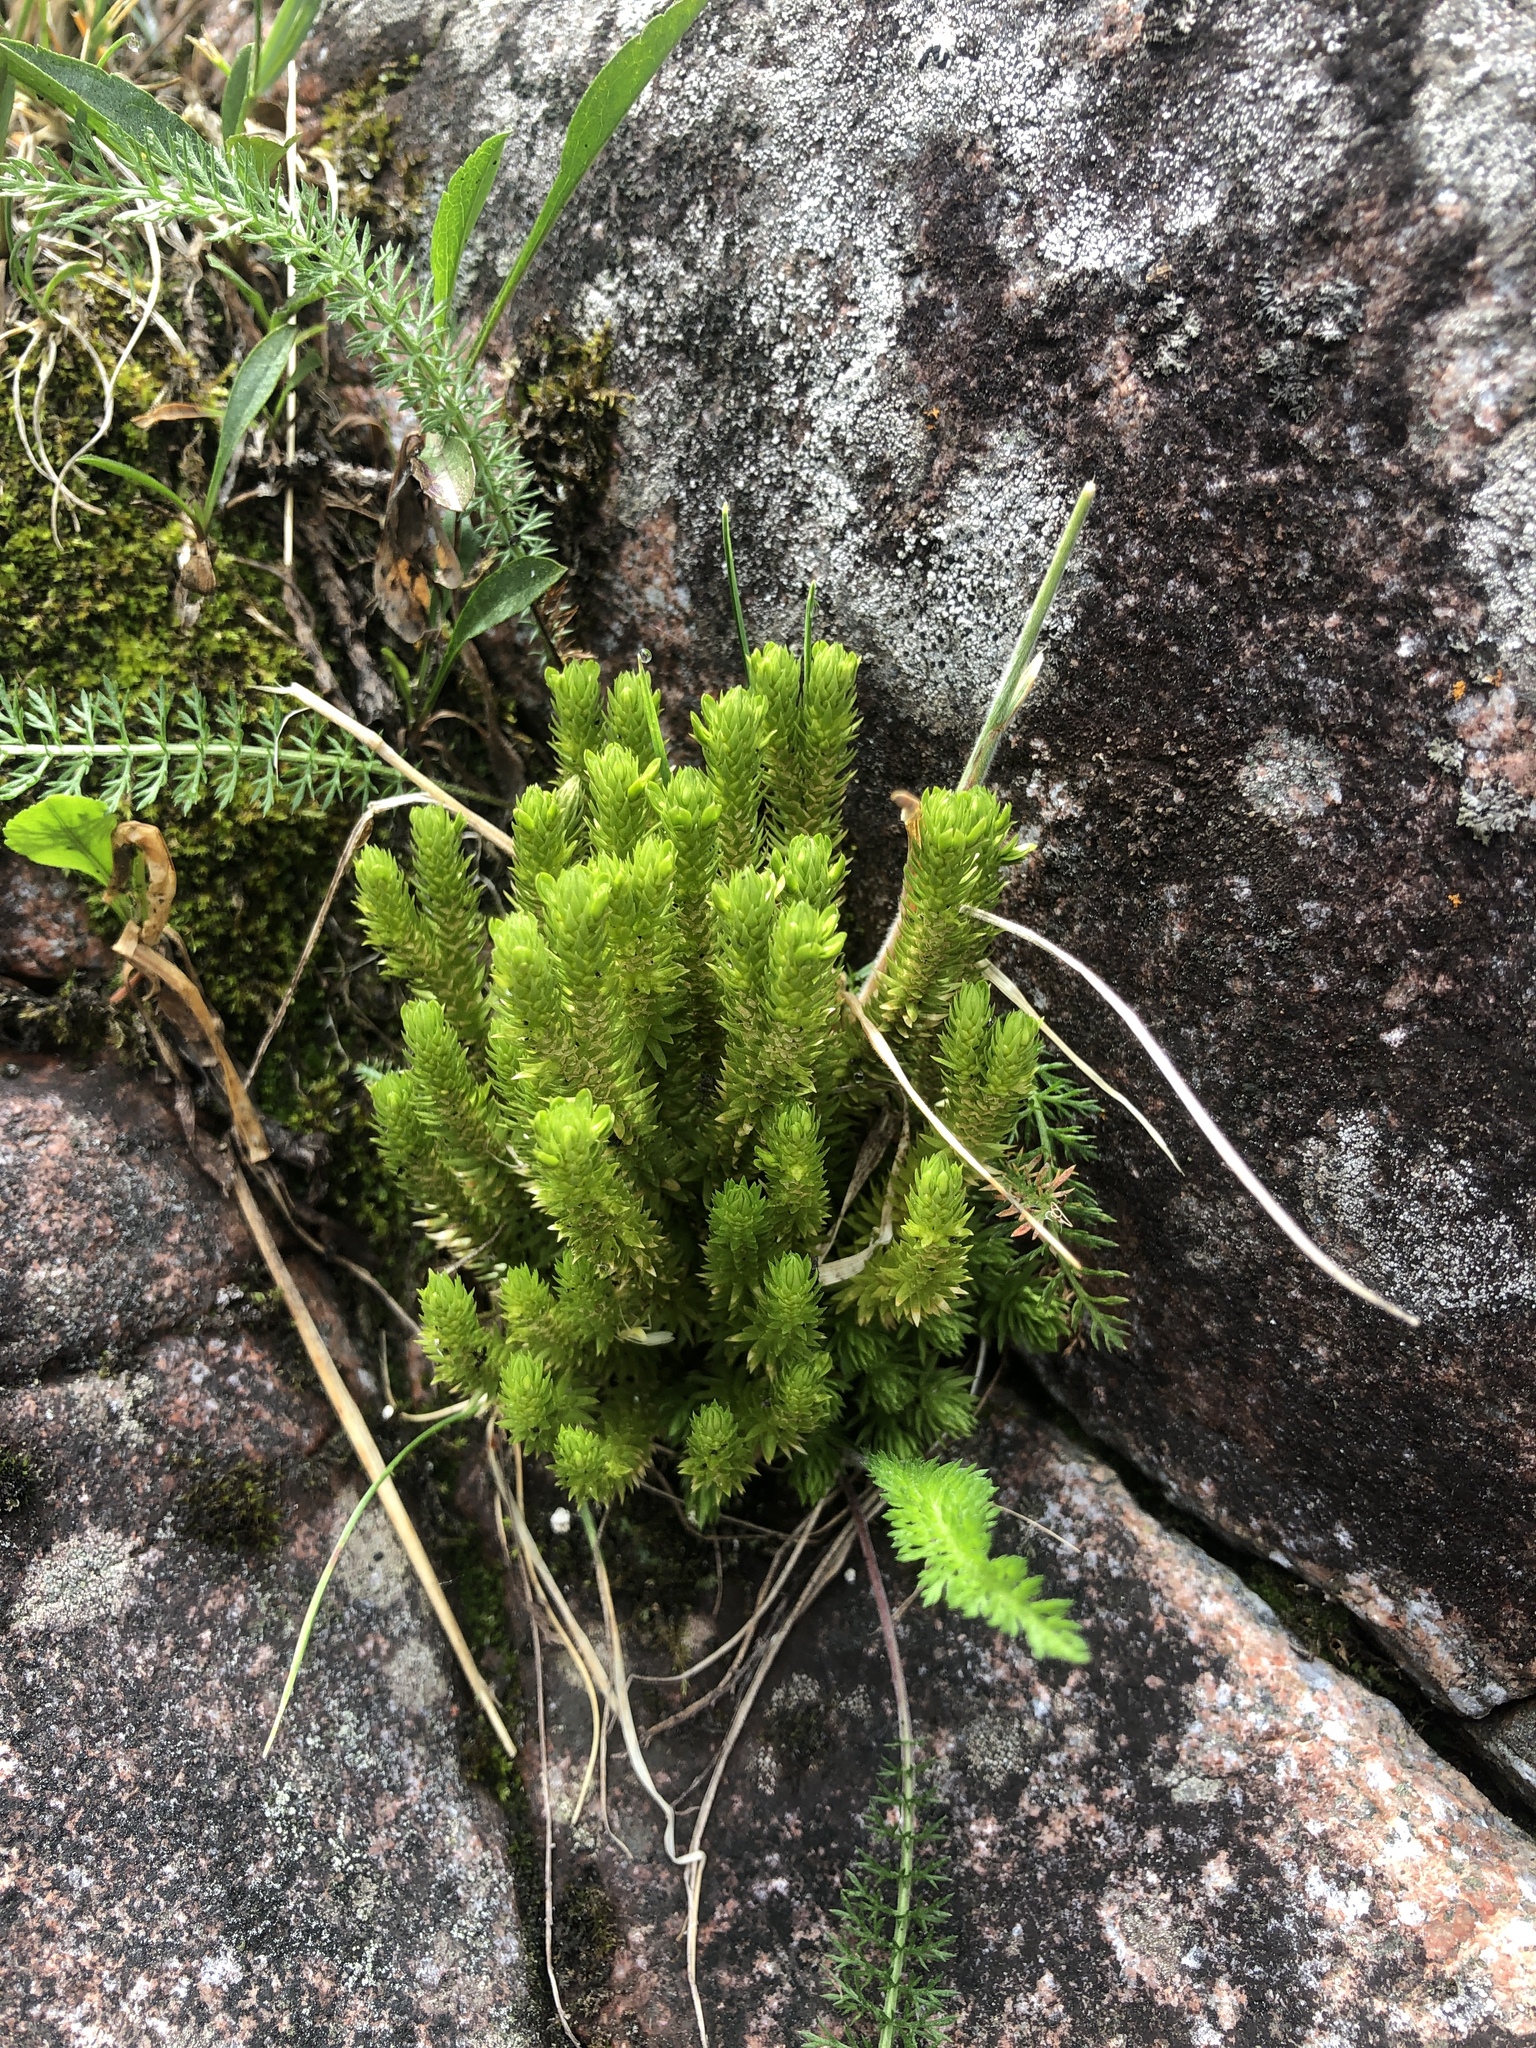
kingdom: Plantae
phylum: Tracheophyta
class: Lycopodiopsida
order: Lycopodiales
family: Lycopodiaceae
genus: Huperzia
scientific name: Huperzia selago
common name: Northern firmoss
